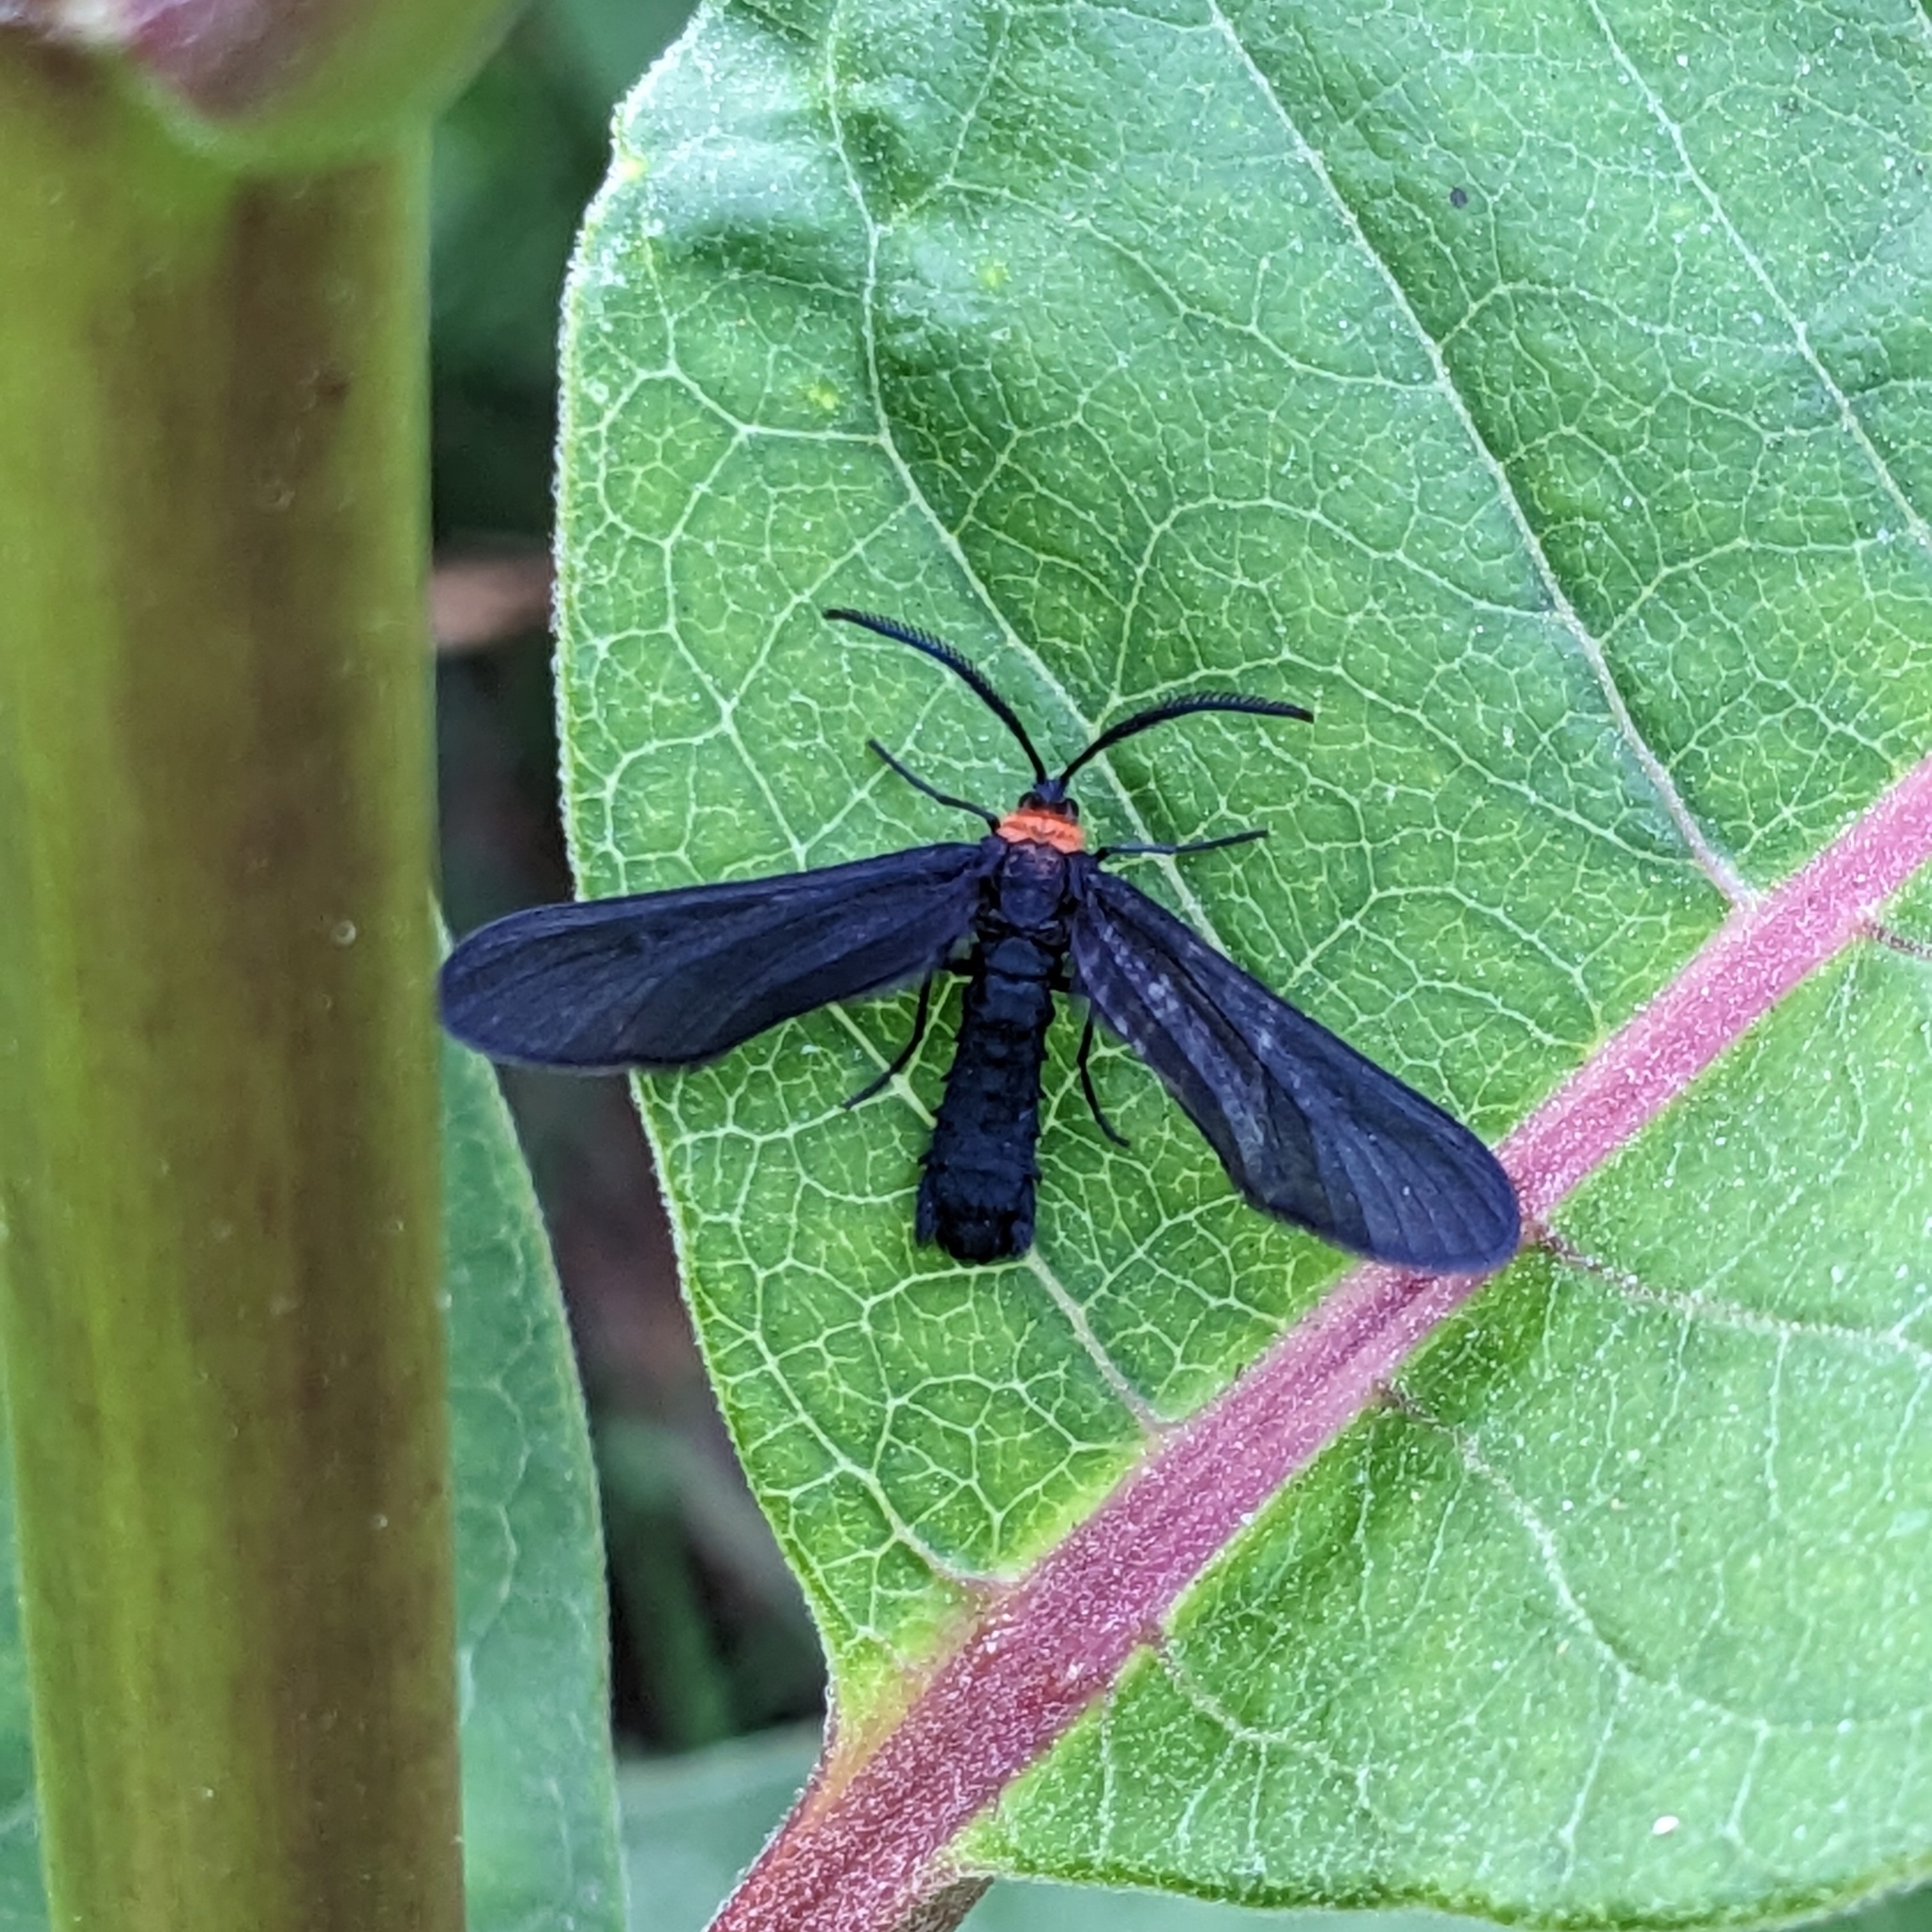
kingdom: Animalia
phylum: Arthropoda
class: Insecta
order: Lepidoptera
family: Zygaenidae
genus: Harrisina
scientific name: Harrisina americana
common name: Grapeleaf skeletonizer moth
